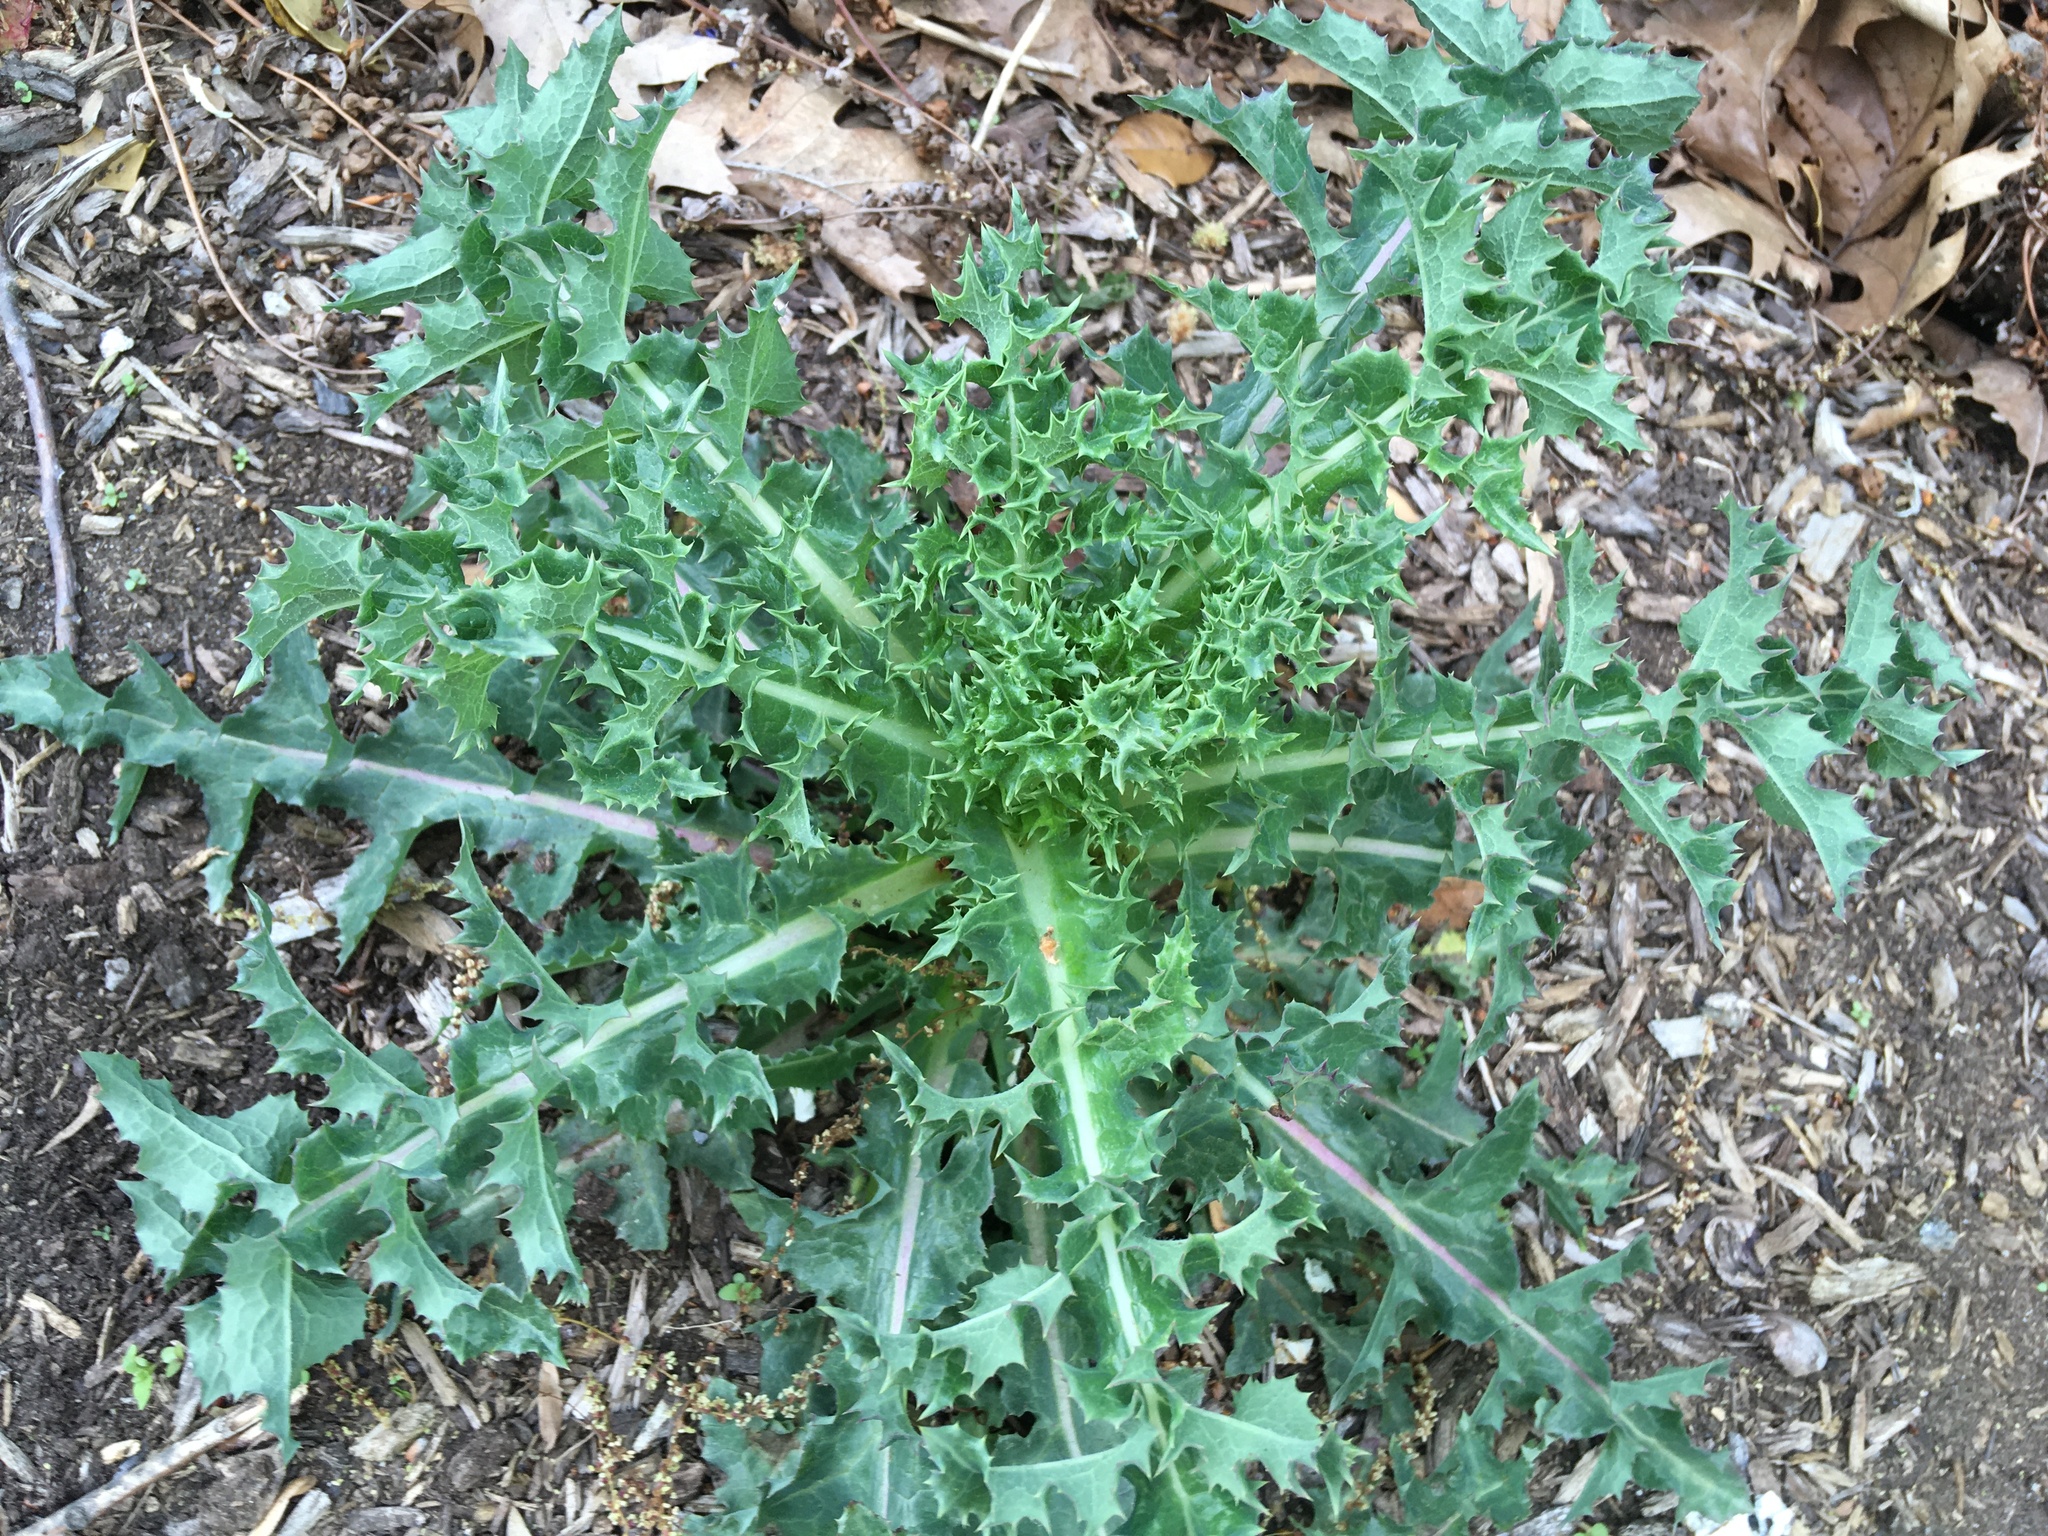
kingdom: Plantae
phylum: Tracheophyta
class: Magnoliopsida
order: Asterales
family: Asteraceae
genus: Sonchus
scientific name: Sonchus asper
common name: Prickly sow-thistle
